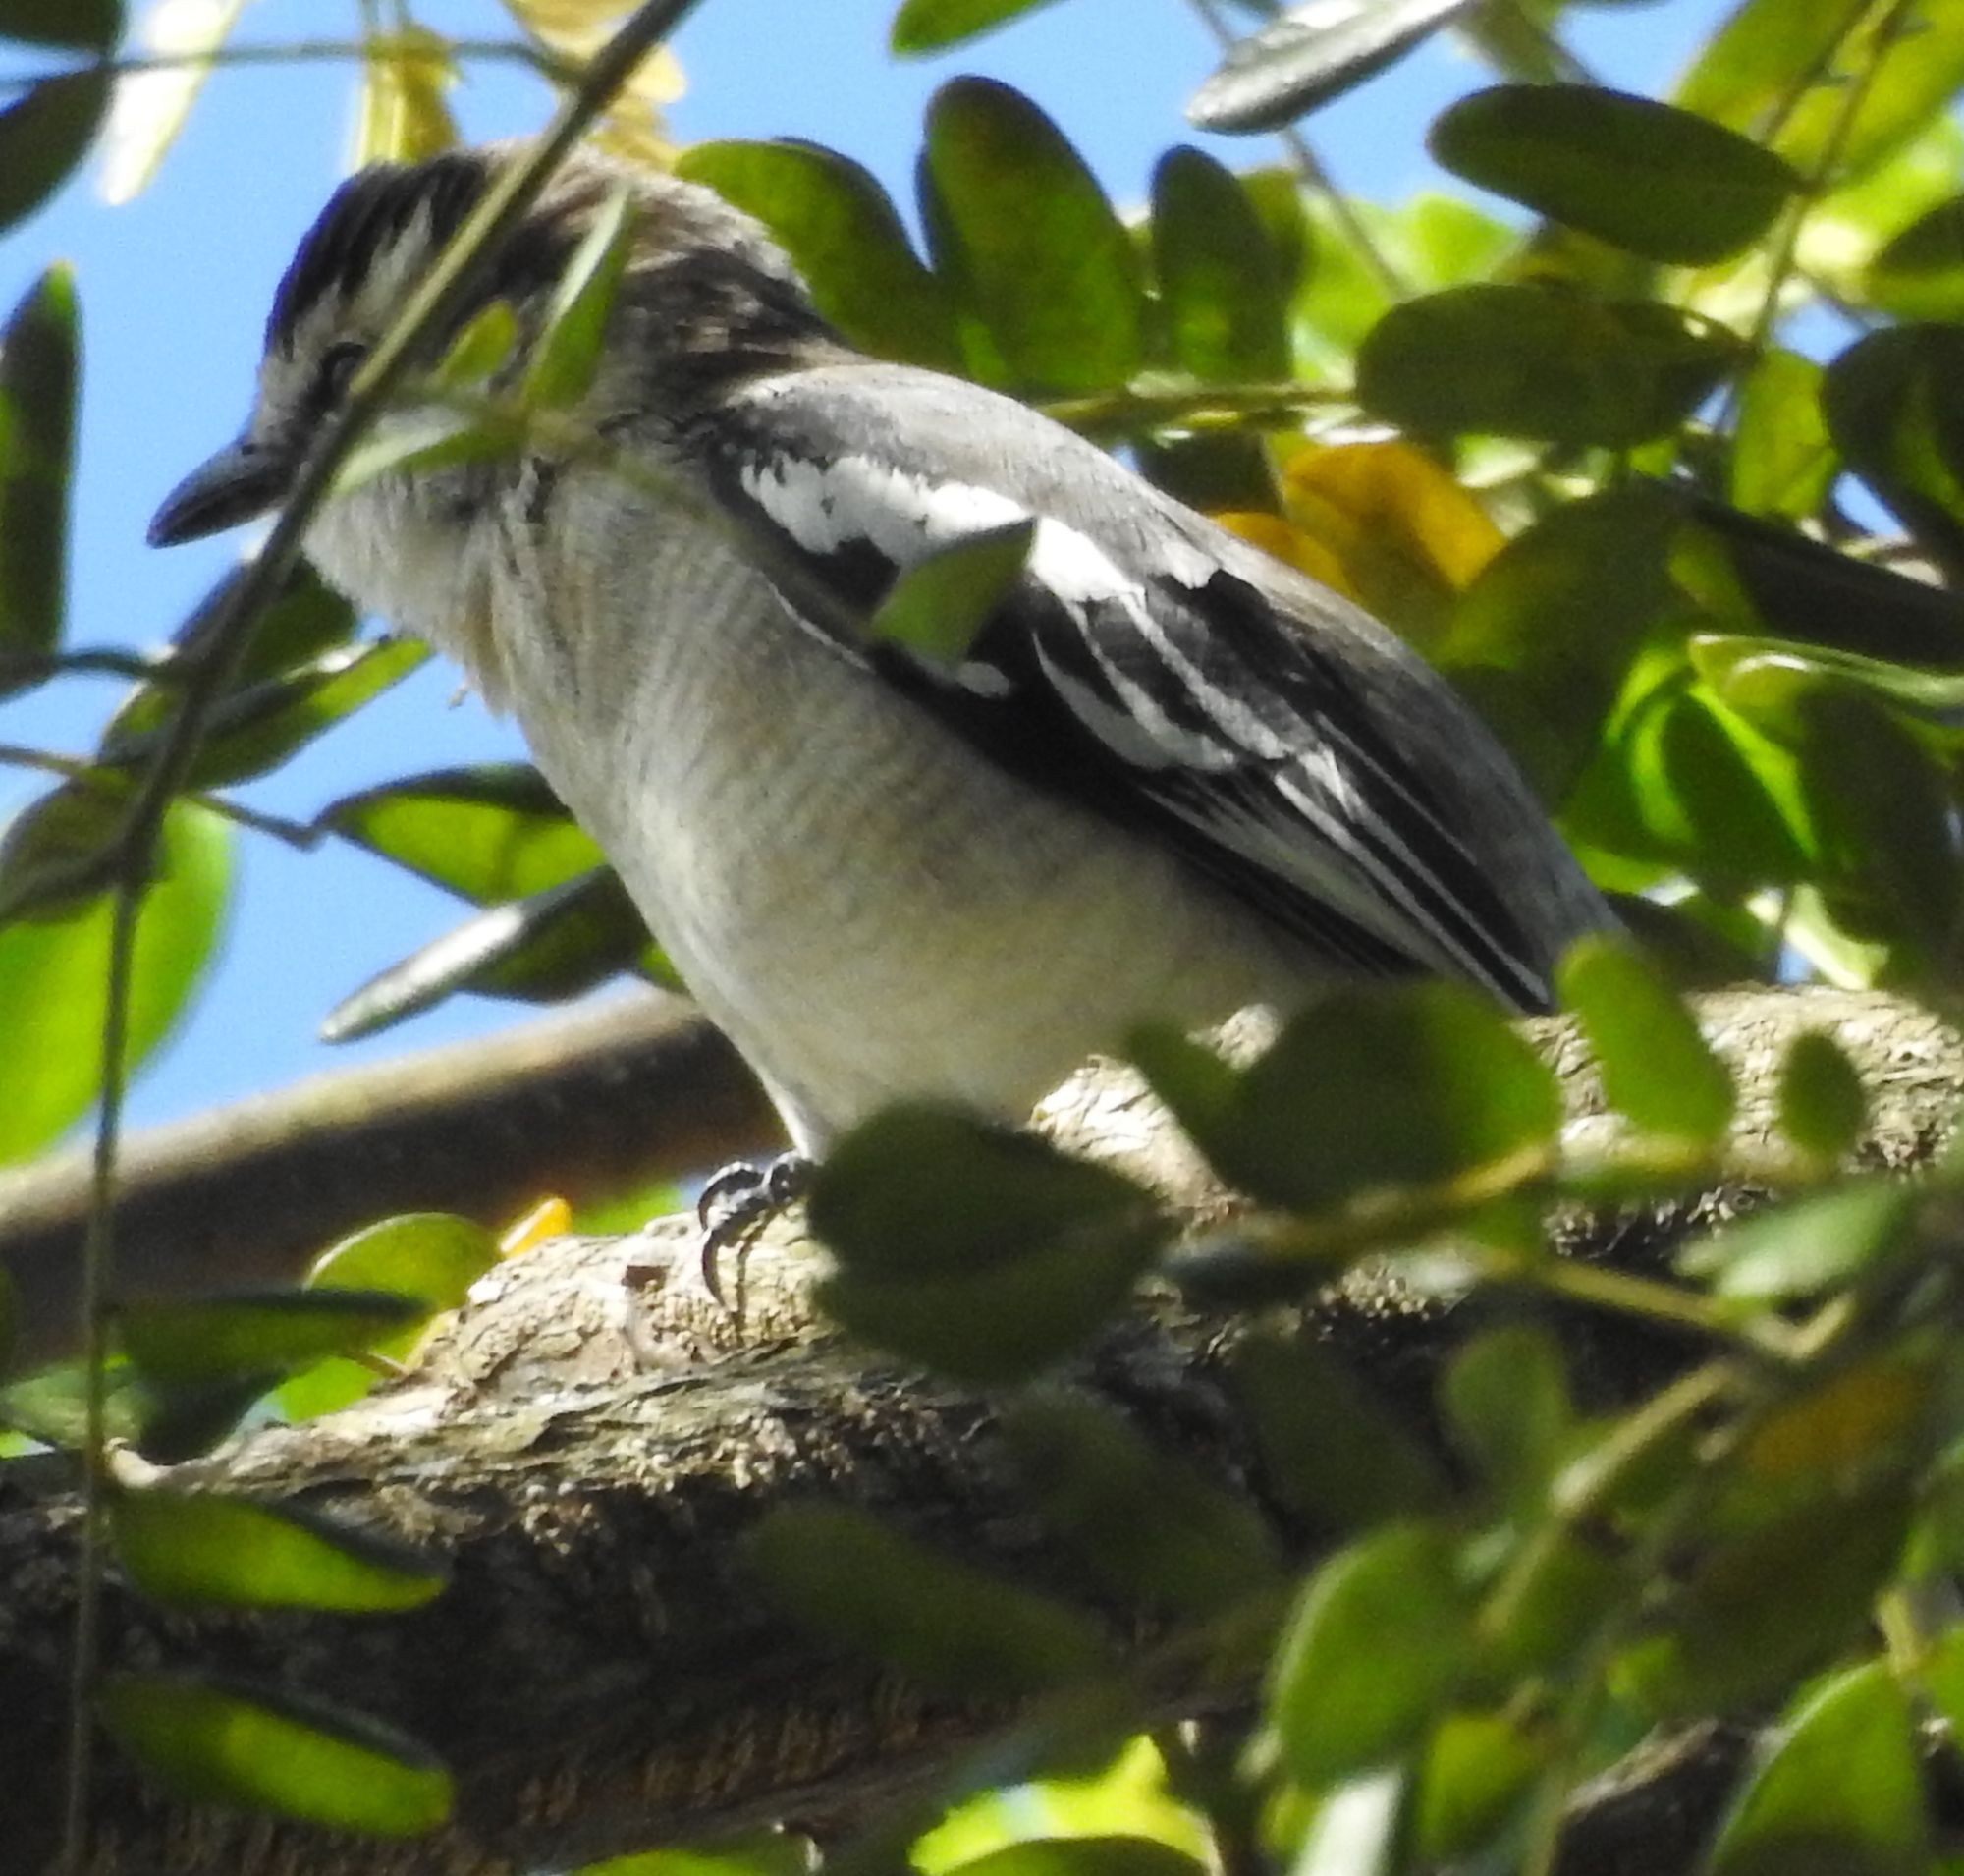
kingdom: Animalia
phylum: Chordata
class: Aves
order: Passeriformes
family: Campephagidae
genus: Lalage
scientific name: Lalage nigra
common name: Pied triller
